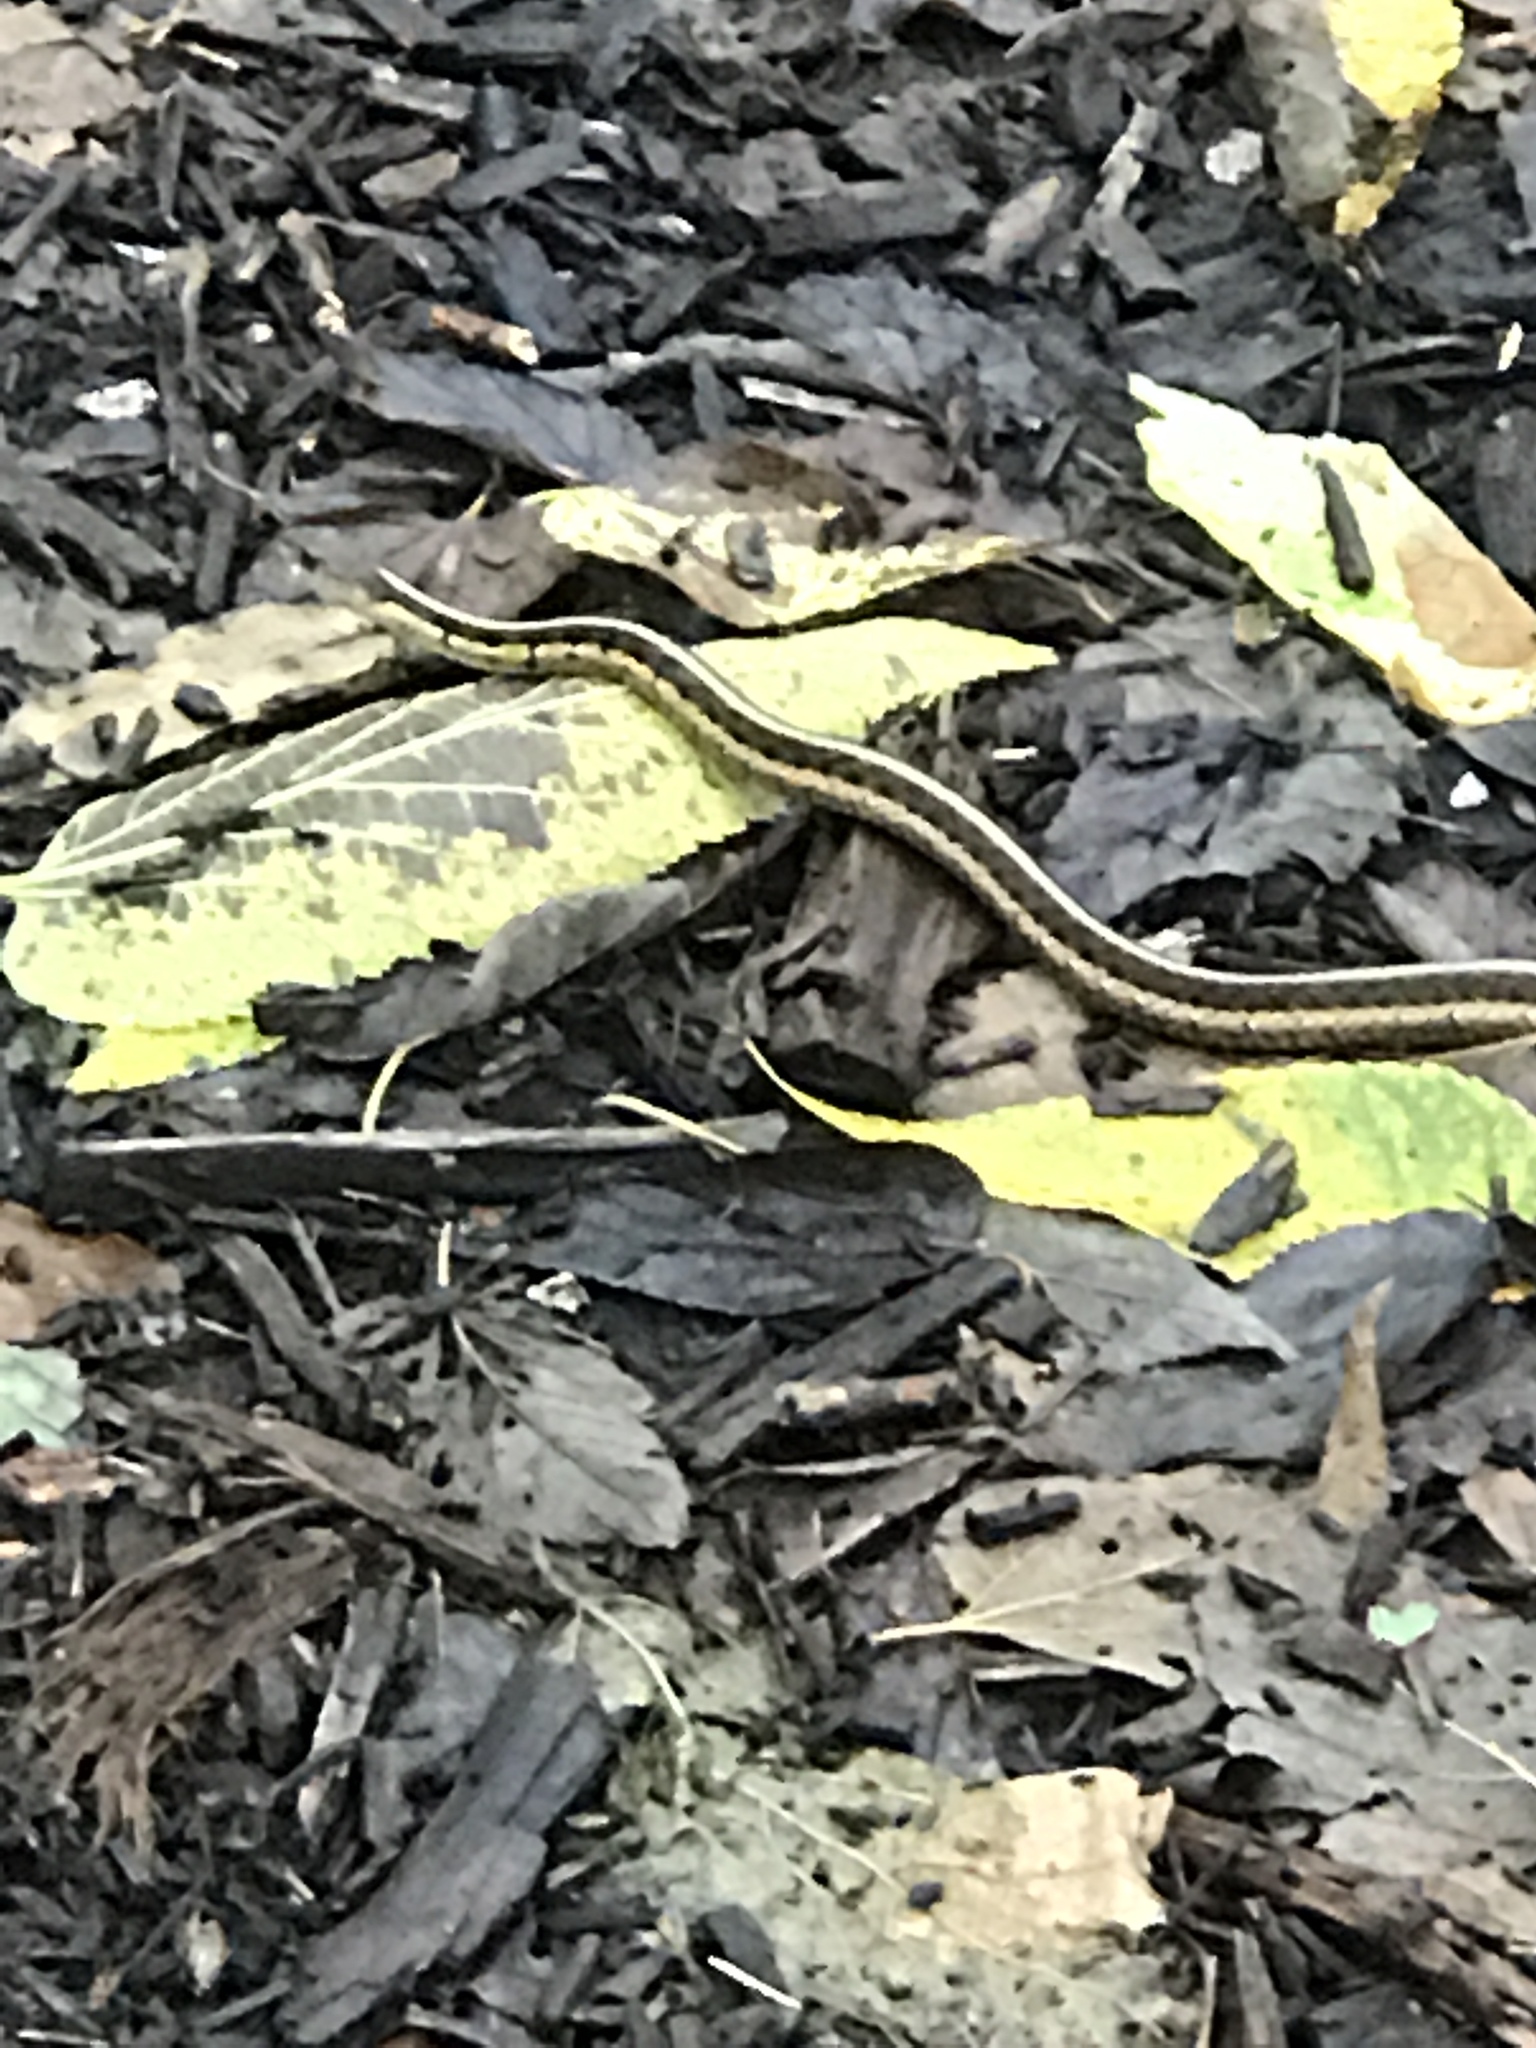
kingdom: Animalia
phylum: Chordata
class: Squamata
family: Colubridae
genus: Thamnophis
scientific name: Thamnophis sirtalis
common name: Common garter snake
